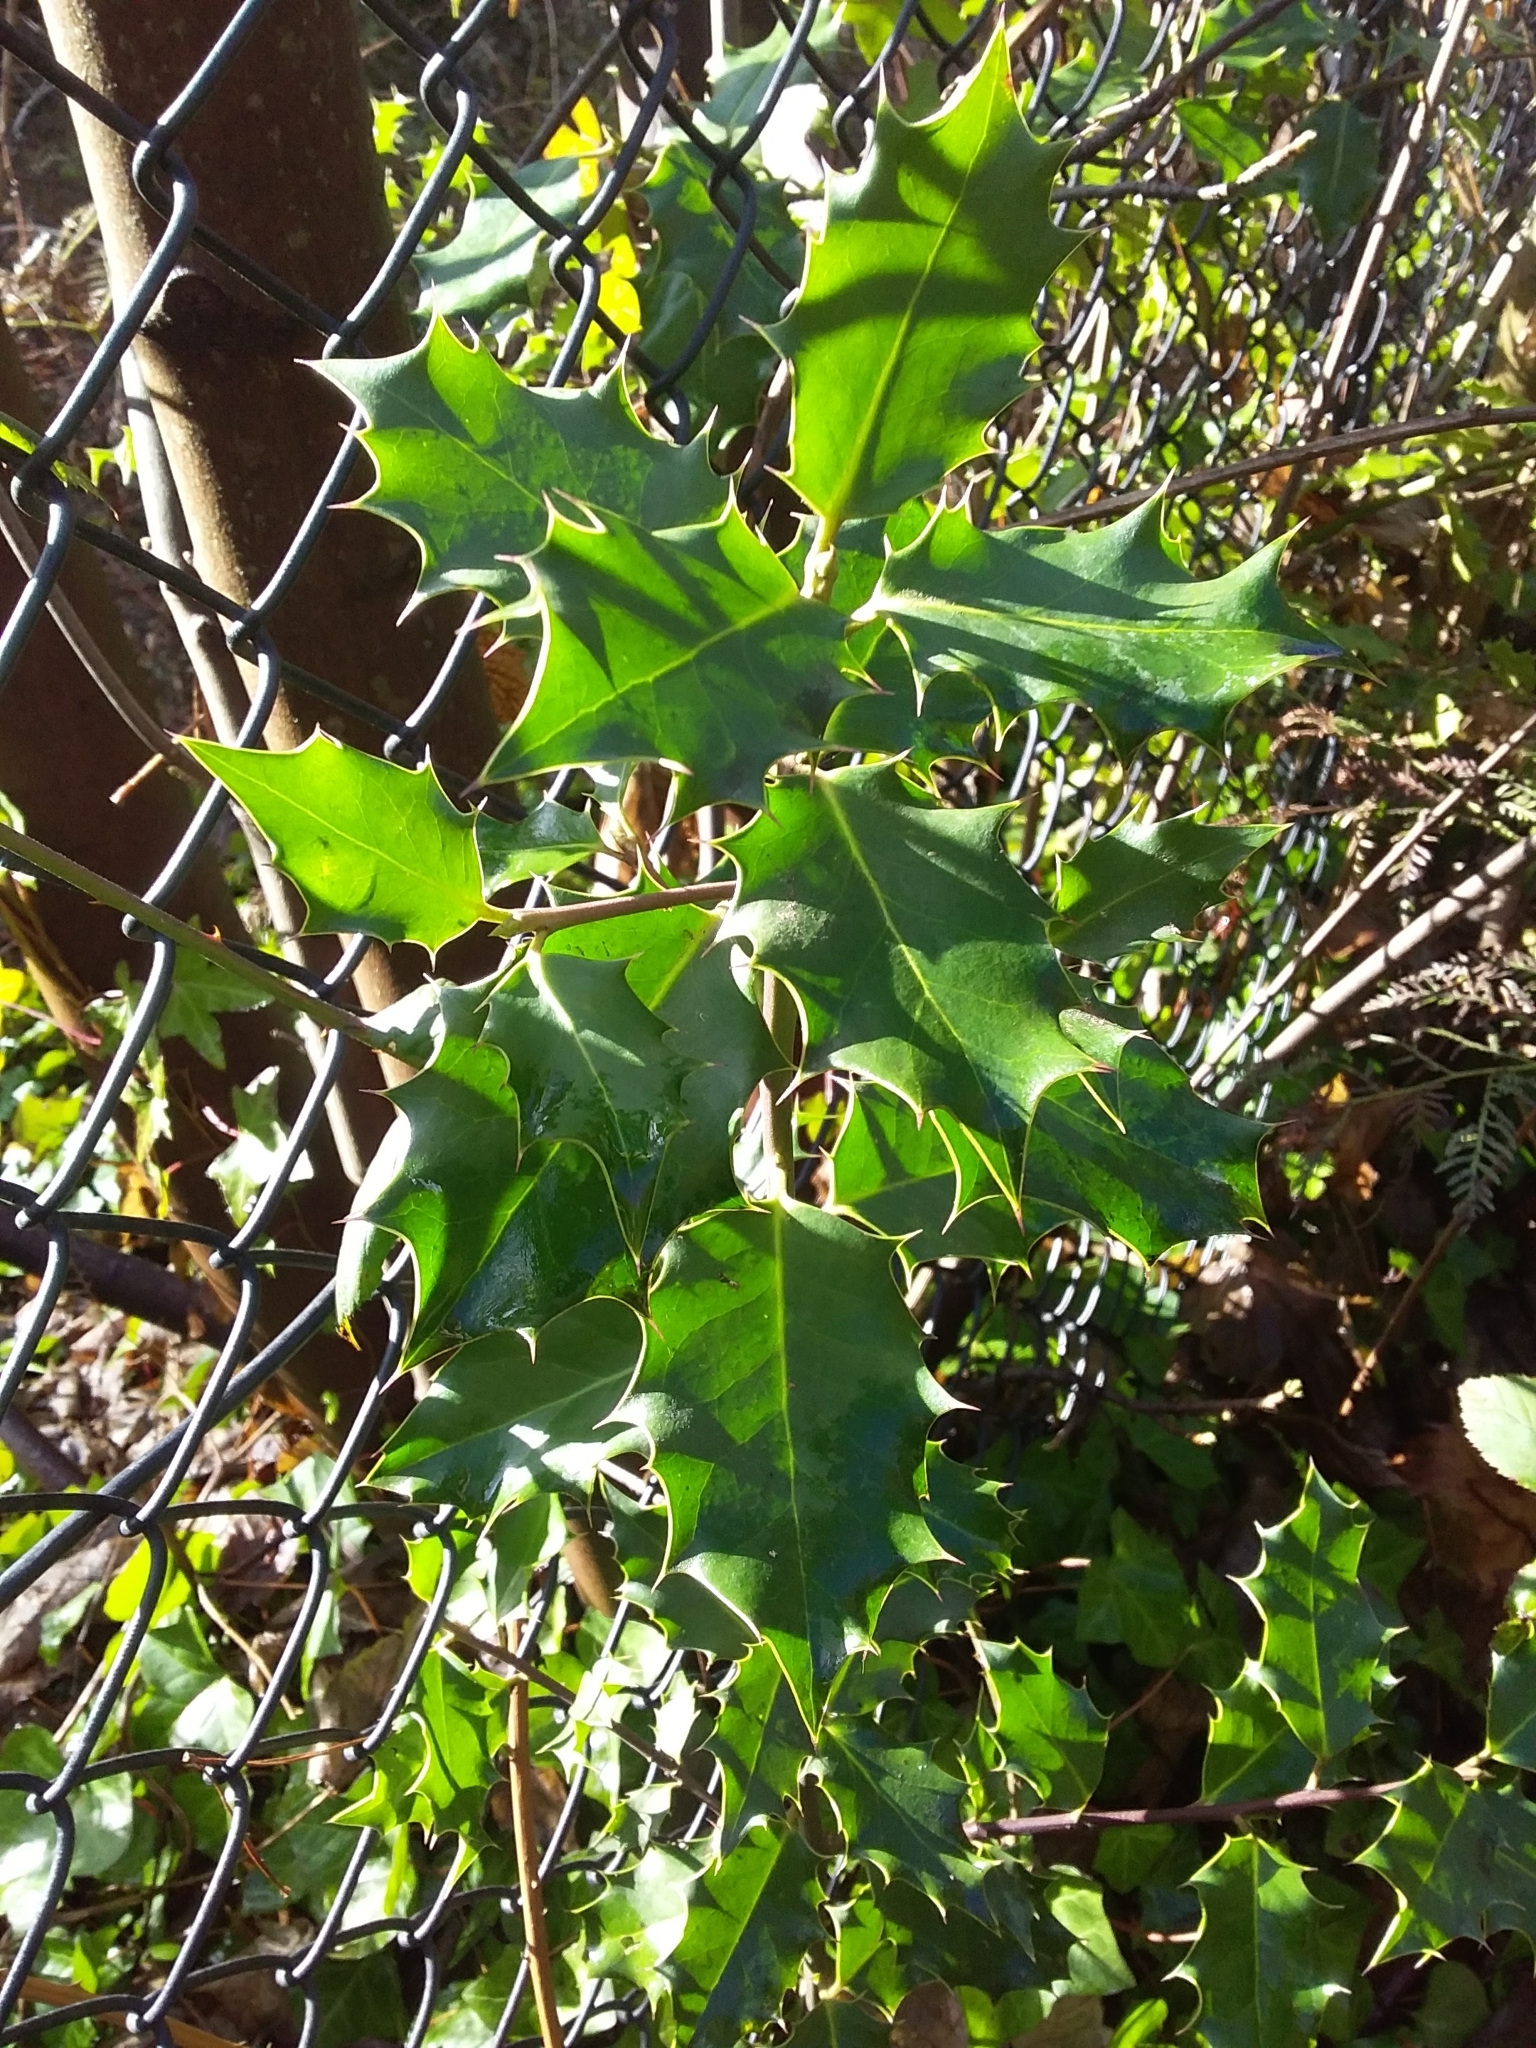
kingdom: Plantae
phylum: Tracheophyta
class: Magnoliopsida
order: Aquifoliales
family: Aquifoliaceae
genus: Ilex
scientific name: Ilex aquifolium
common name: English holly
